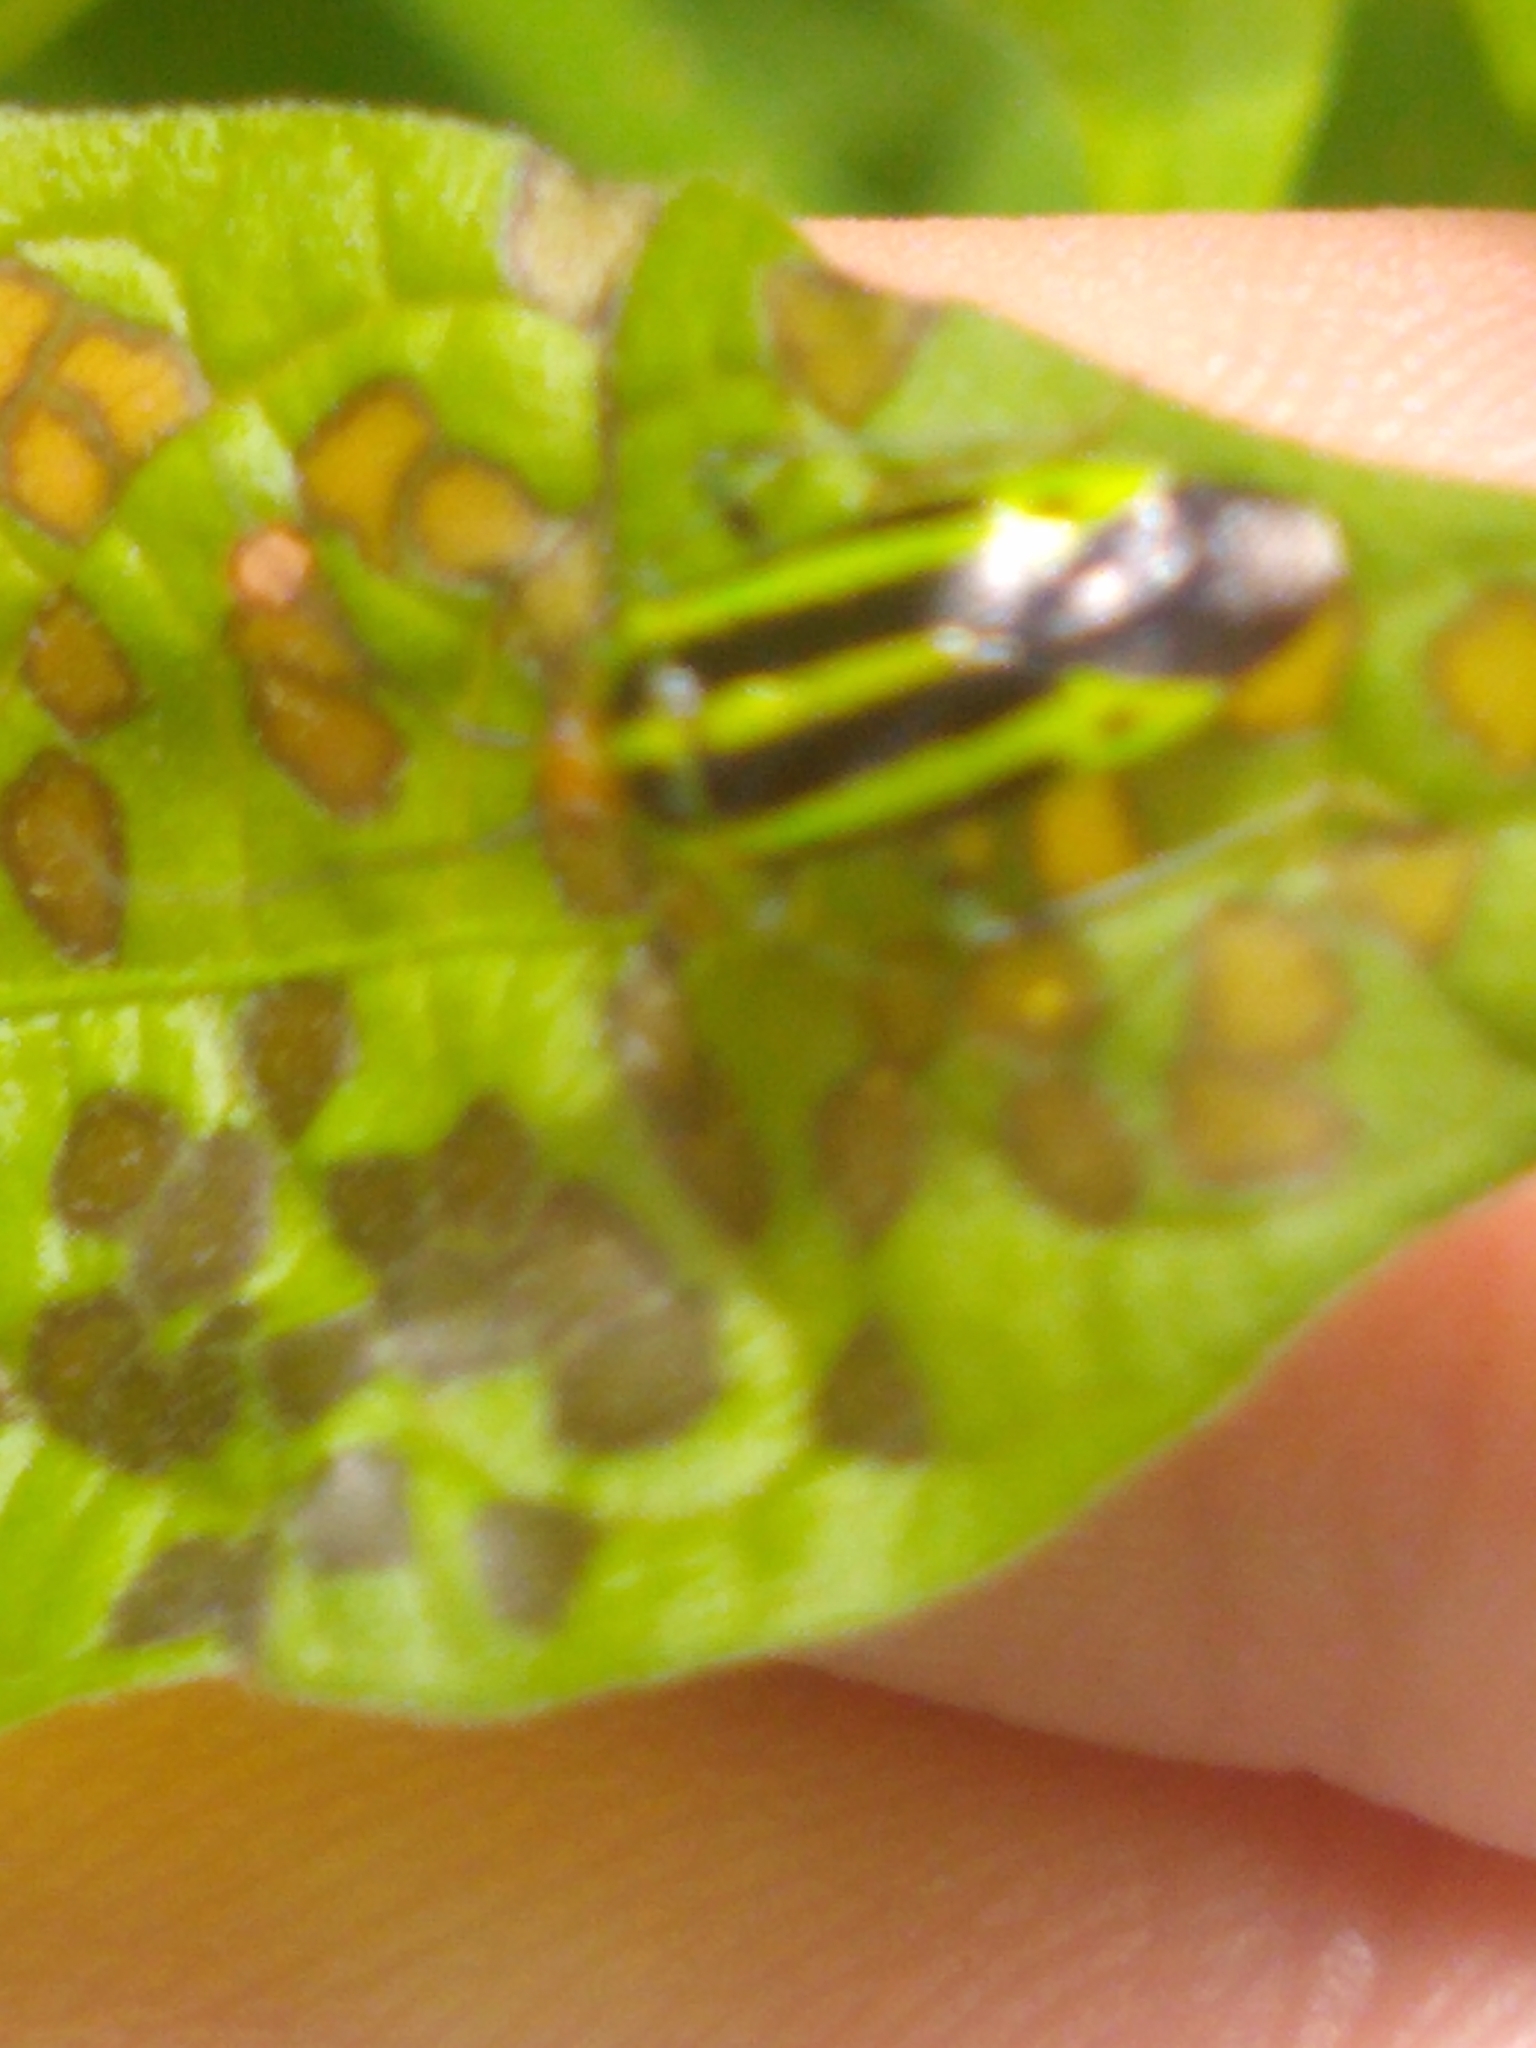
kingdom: Animalia
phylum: Arthropoda
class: Insecta
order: Hemiptera
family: Miridae
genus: Poecilocapsus
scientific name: Poecilocapsus lineatus
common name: Four-lined plant bug
